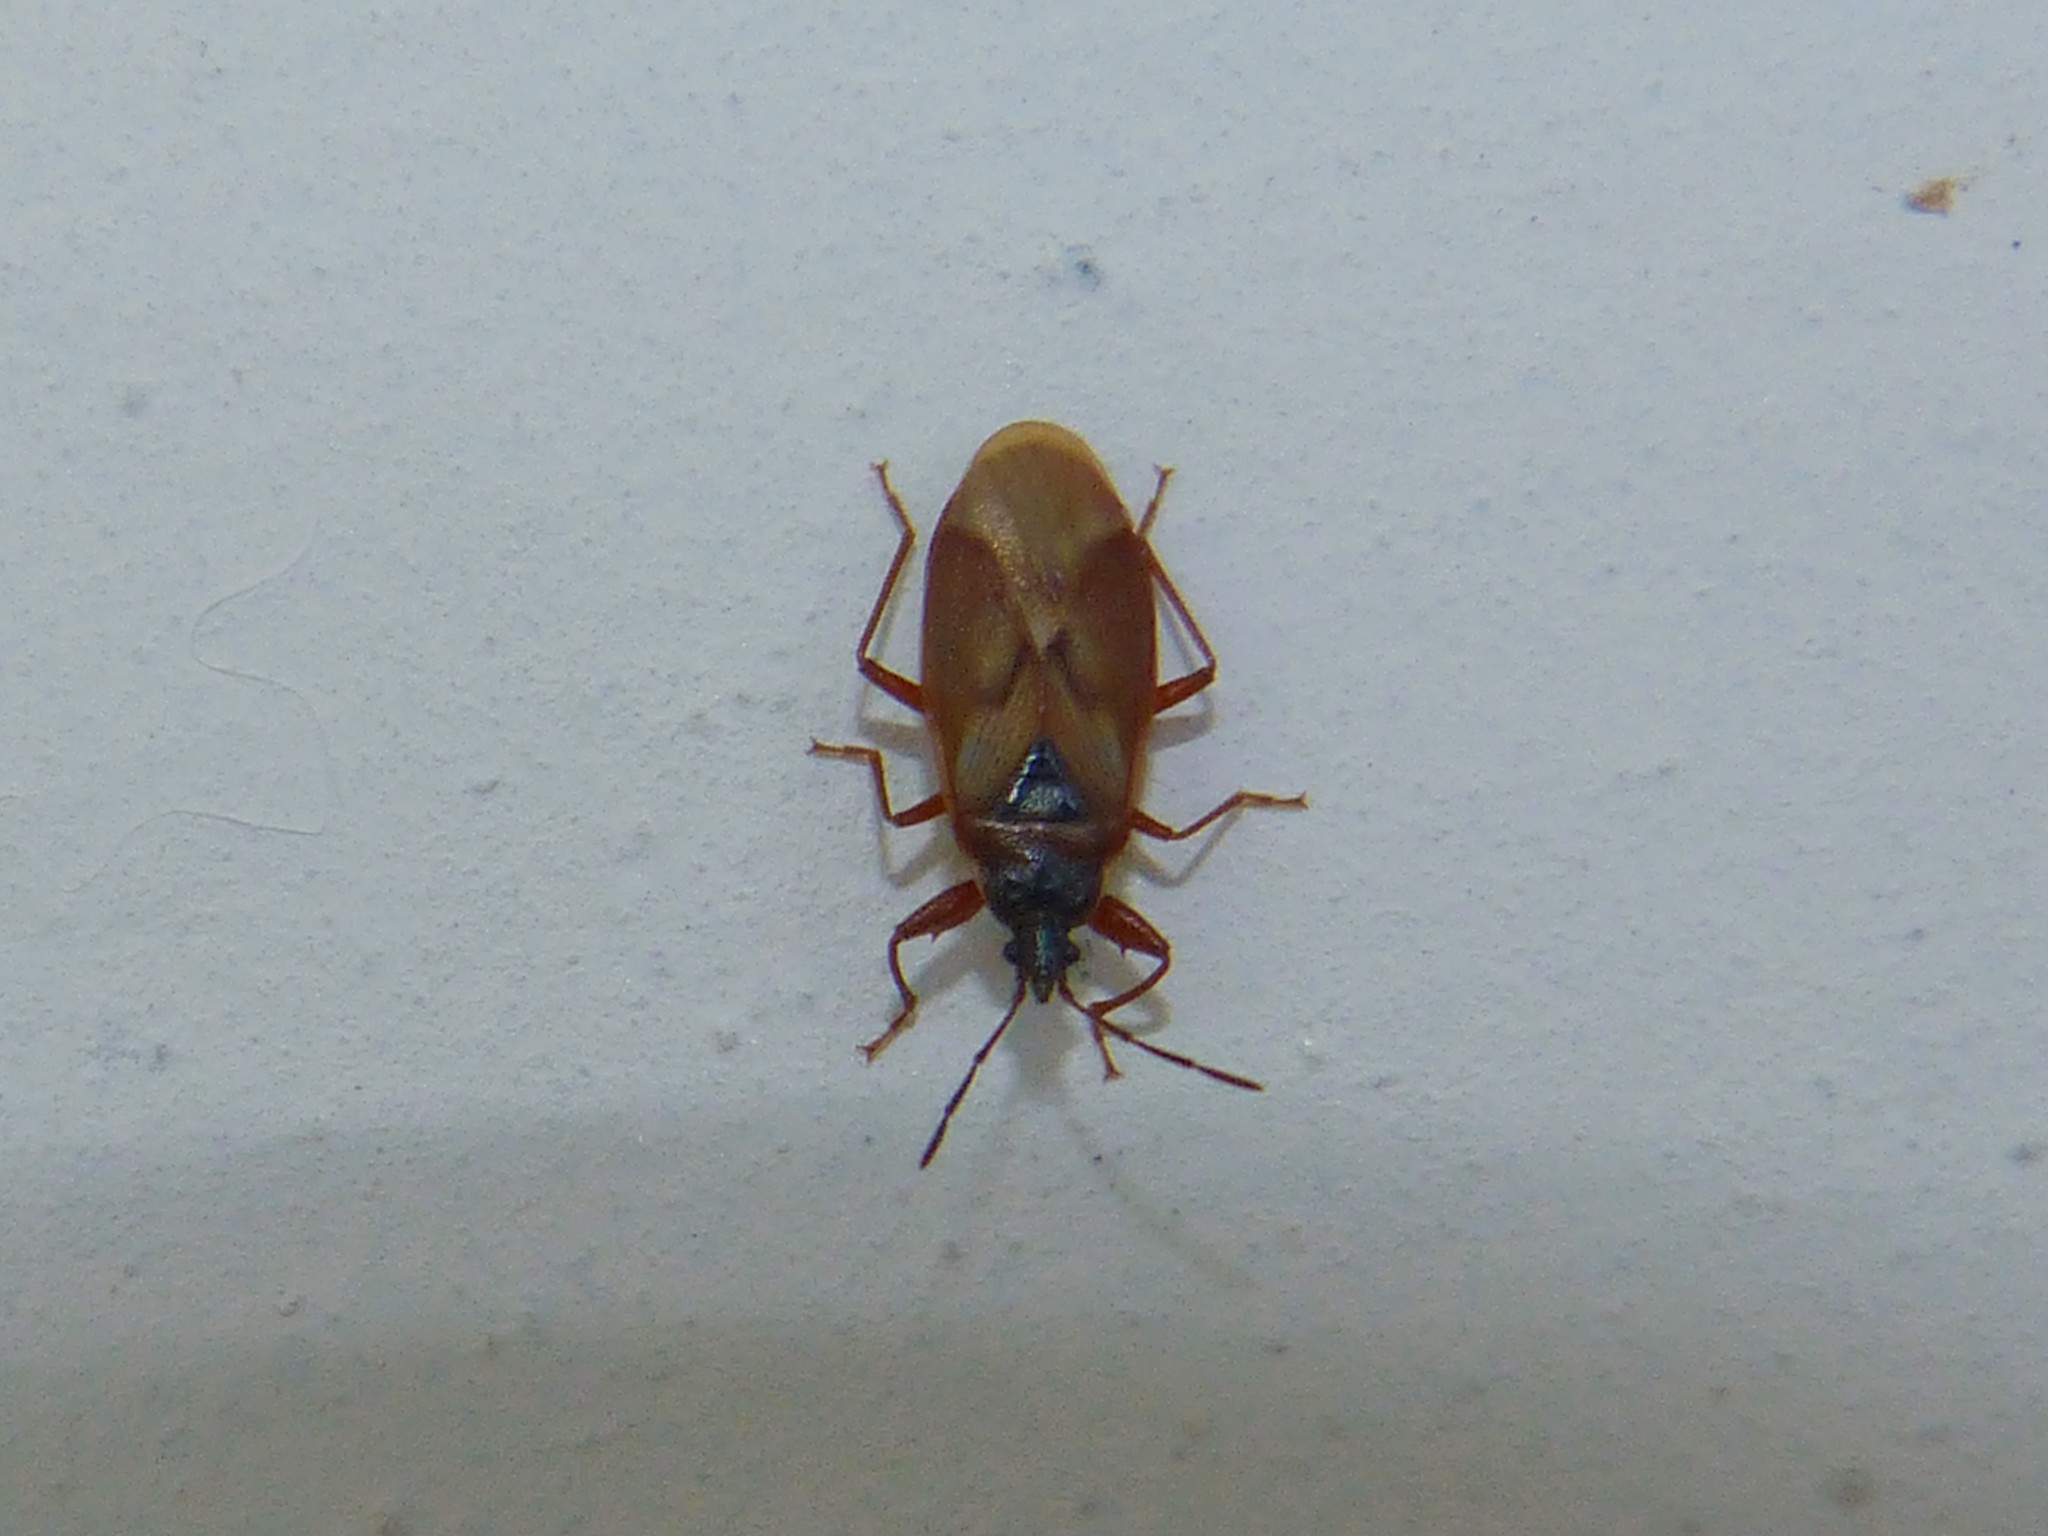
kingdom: Animalia
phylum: Arthropoda
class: Insecta
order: Hemiptera
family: Rhyparochromidae
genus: Gastrodes
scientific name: Gastrodes abietum
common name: Spruce cone bug
